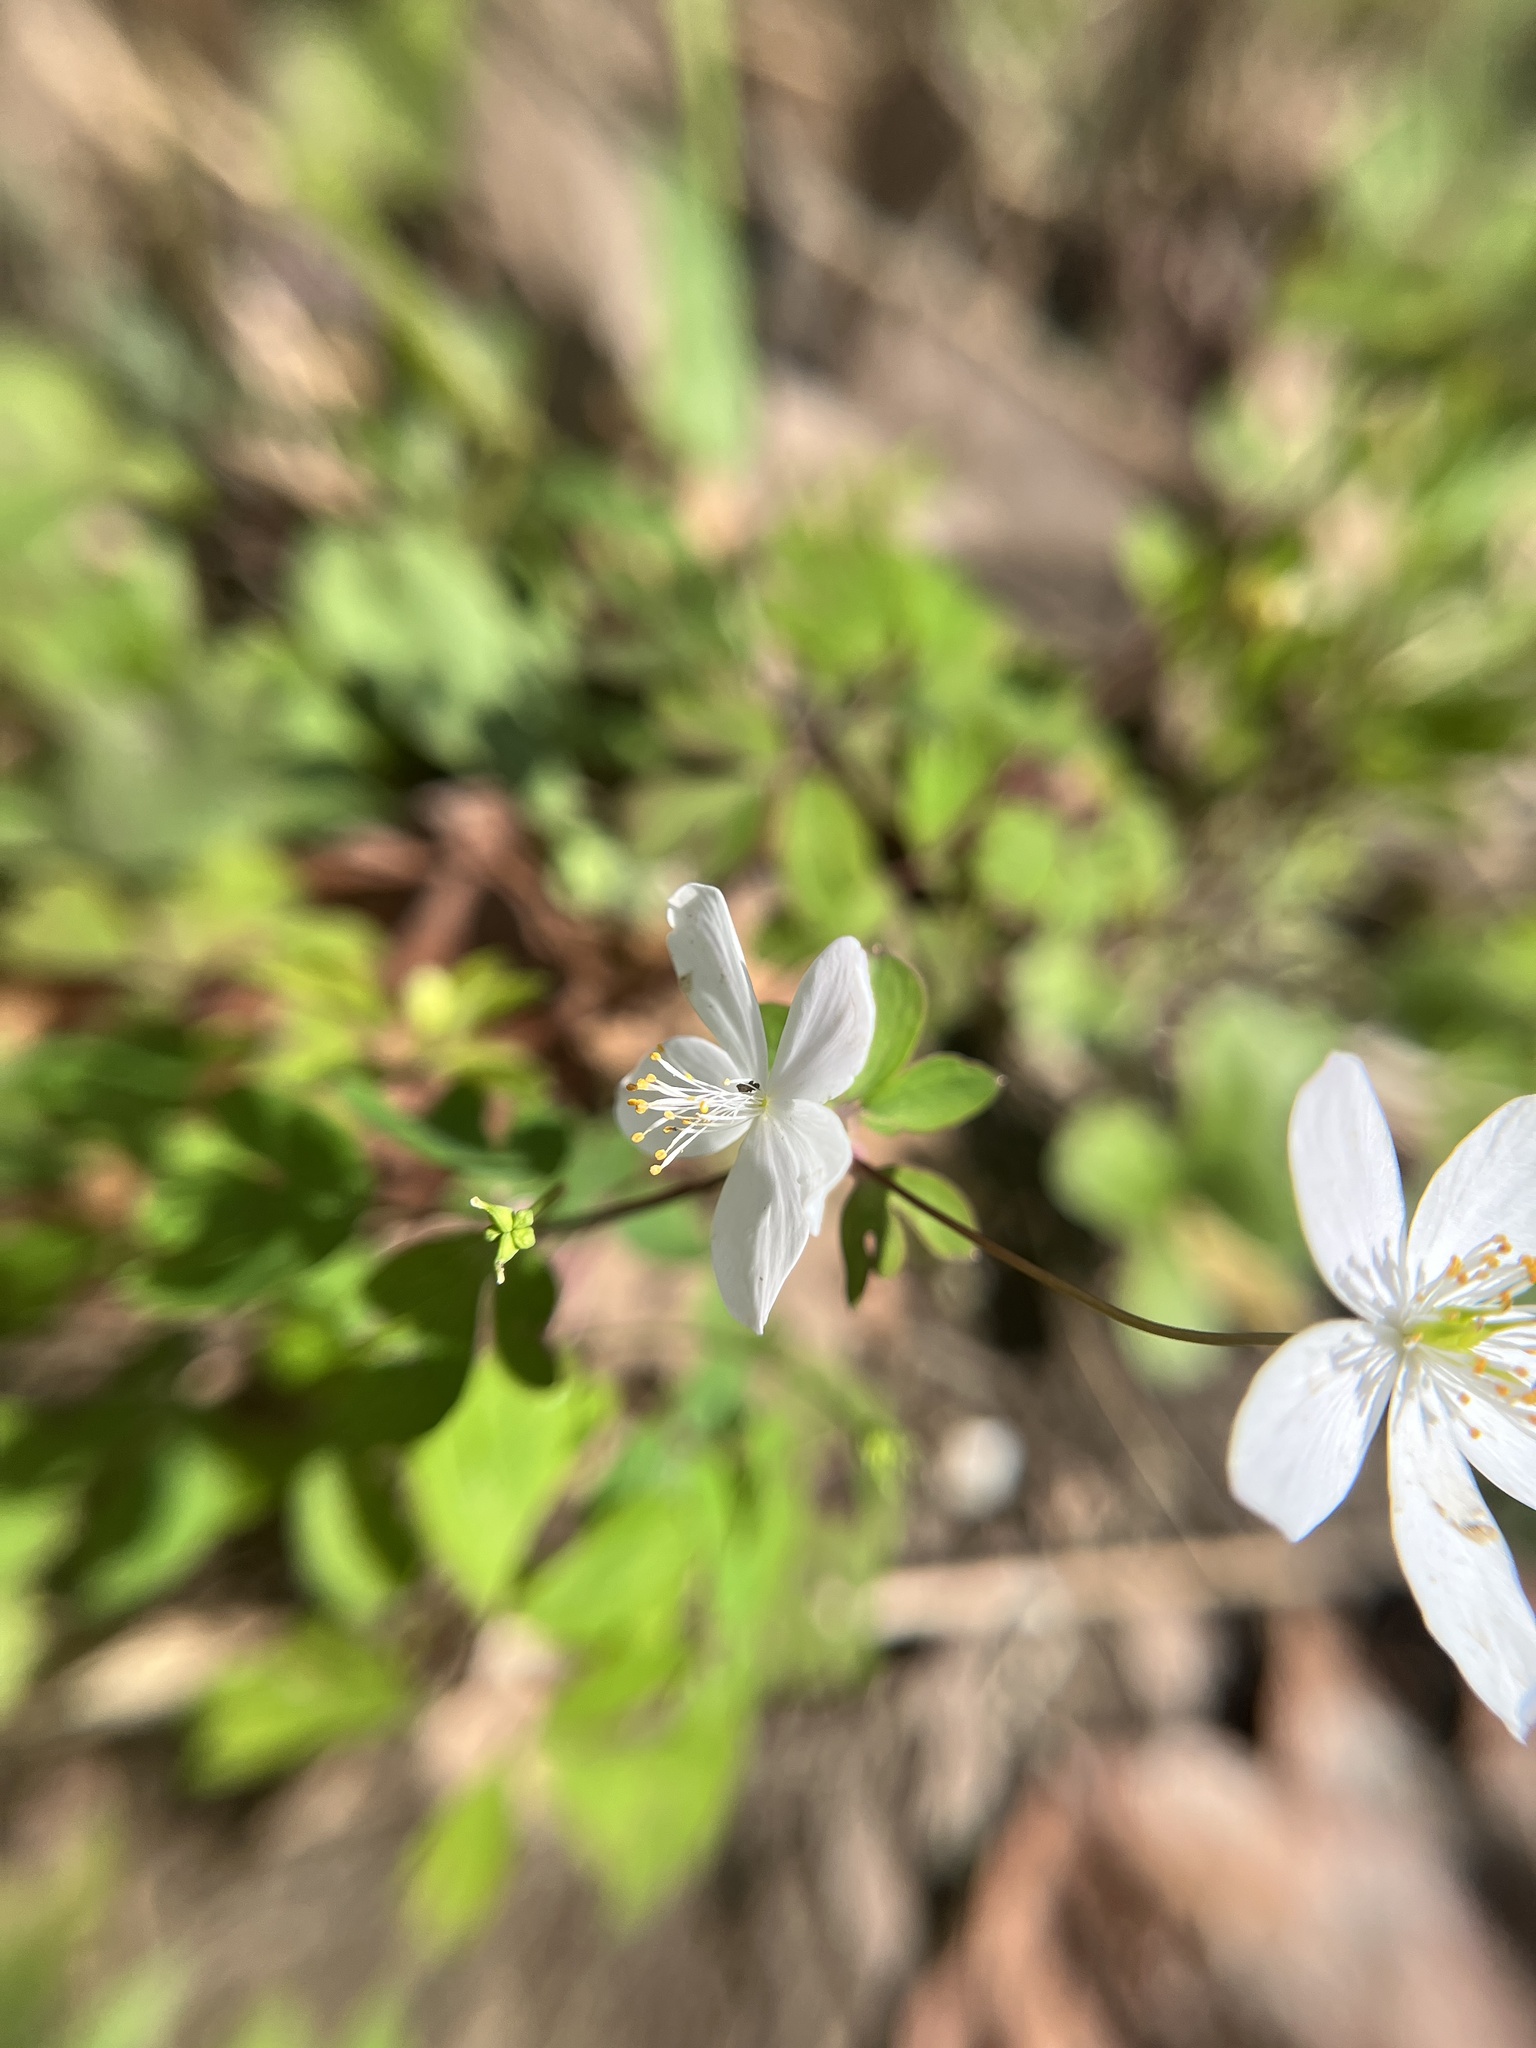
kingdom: Plantae
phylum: Tracheophyta
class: Magnoliopsida
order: Ranunculales
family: Ranunculaceae
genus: Enemion
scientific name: Enemion biternatum
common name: Eastern false rue-anemone
